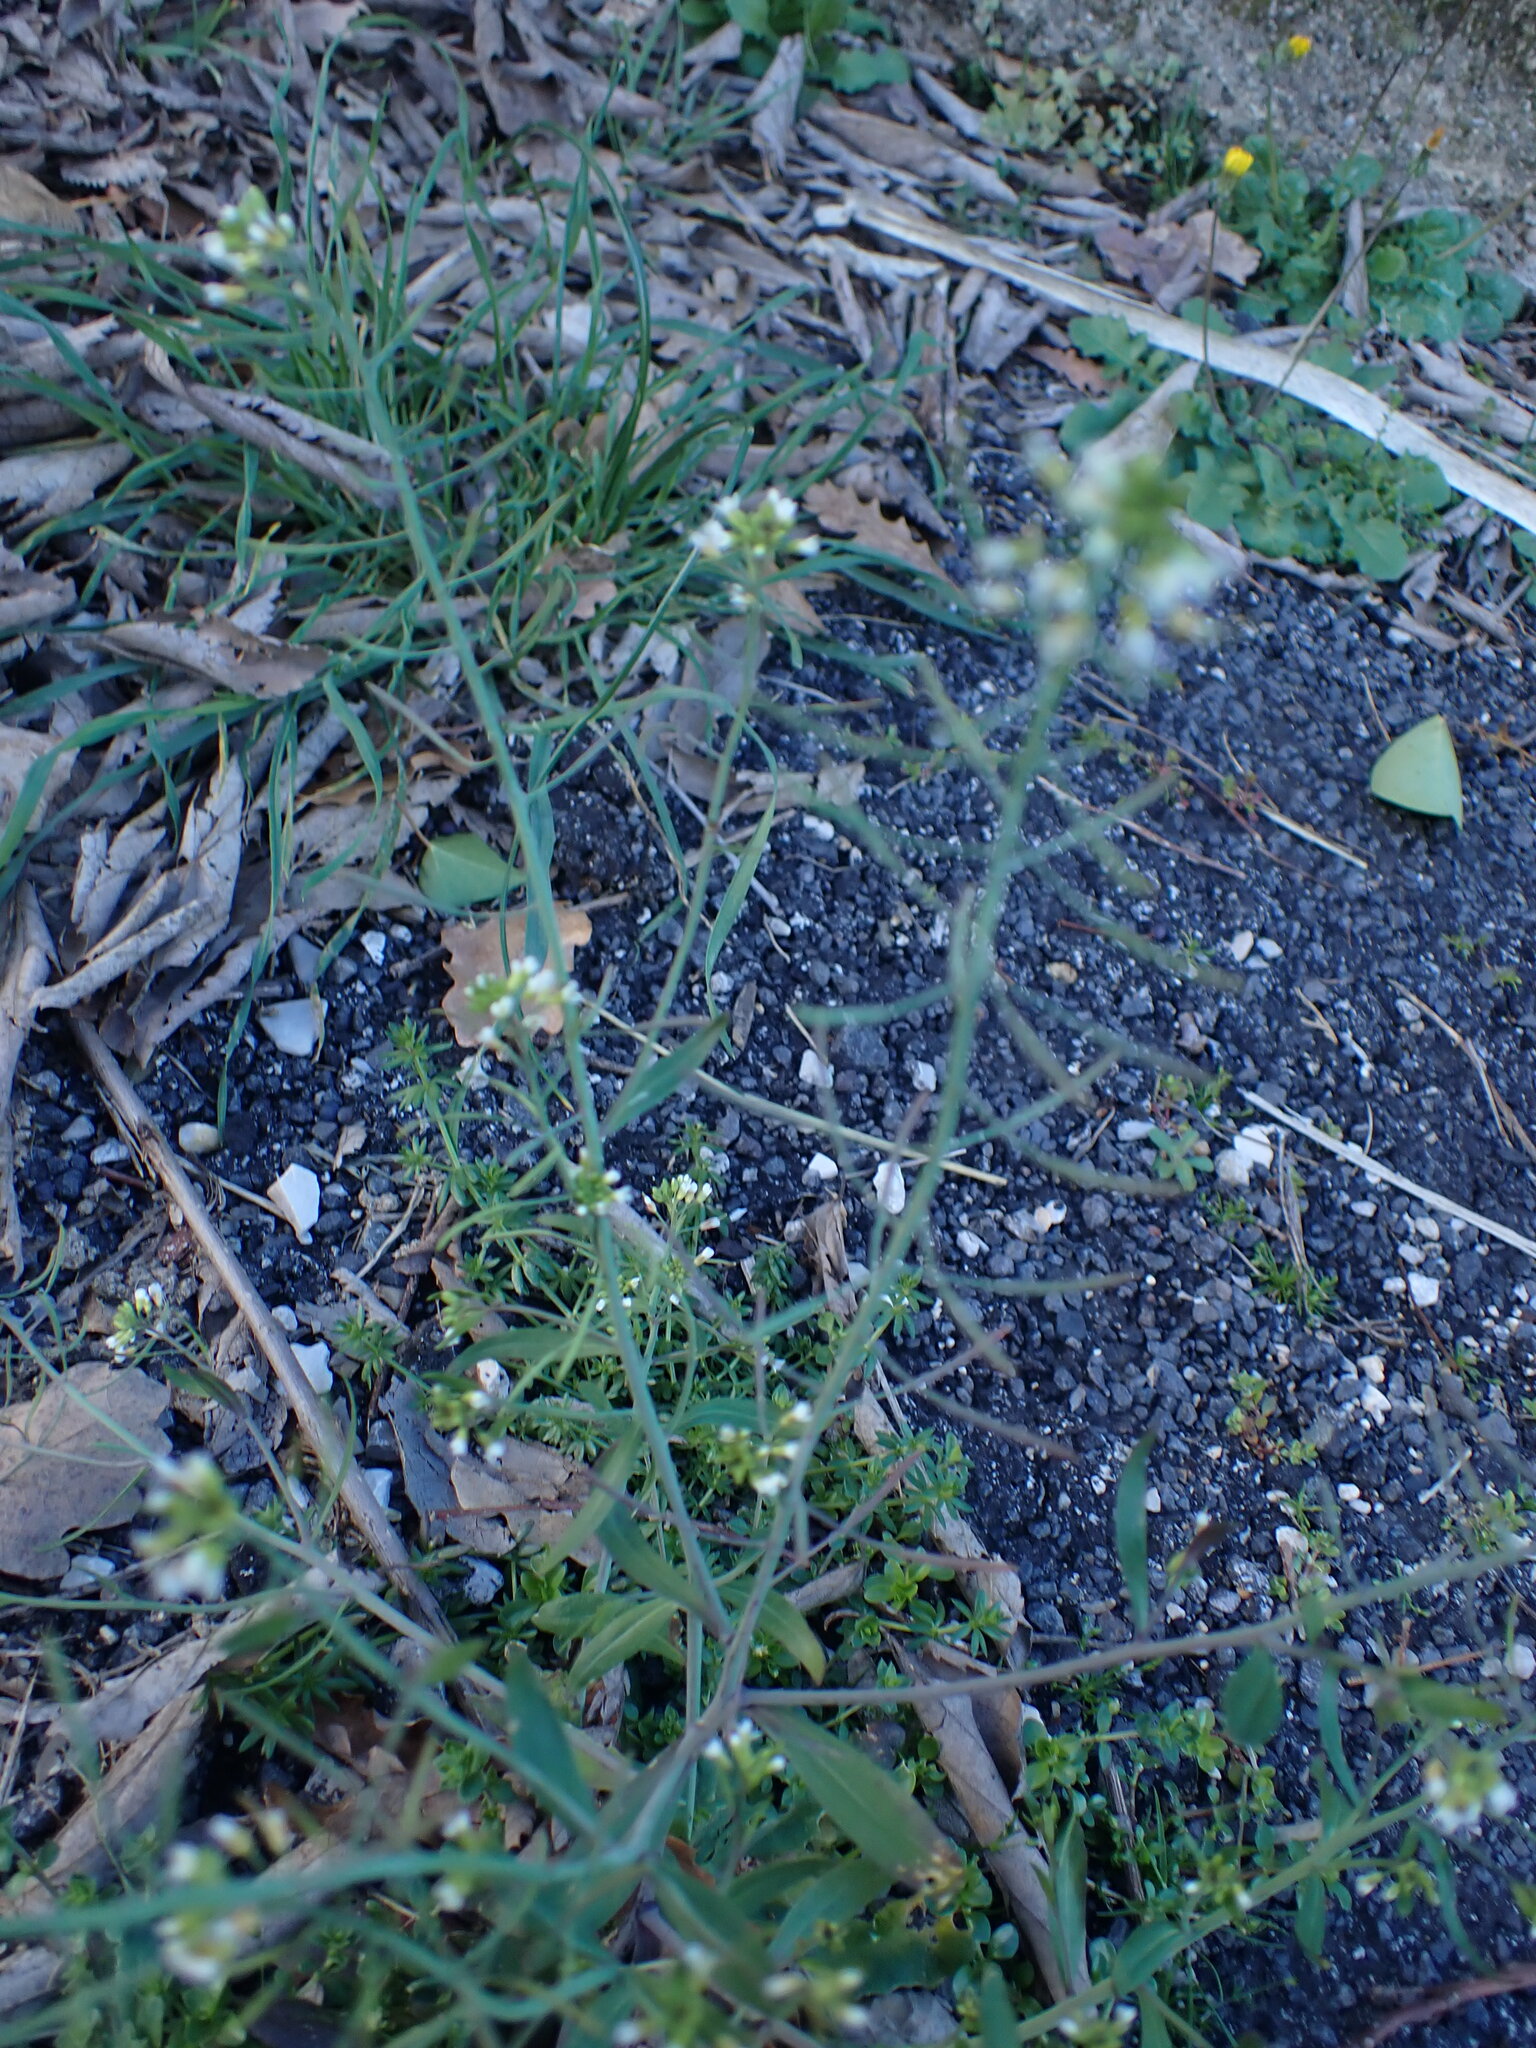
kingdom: Plantae
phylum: Tracheophyta
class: Magnoliopsida
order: Brassicales
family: Brassicaceae
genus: Arabidopsis
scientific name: Arabidopsis thaliana
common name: Thale cress
